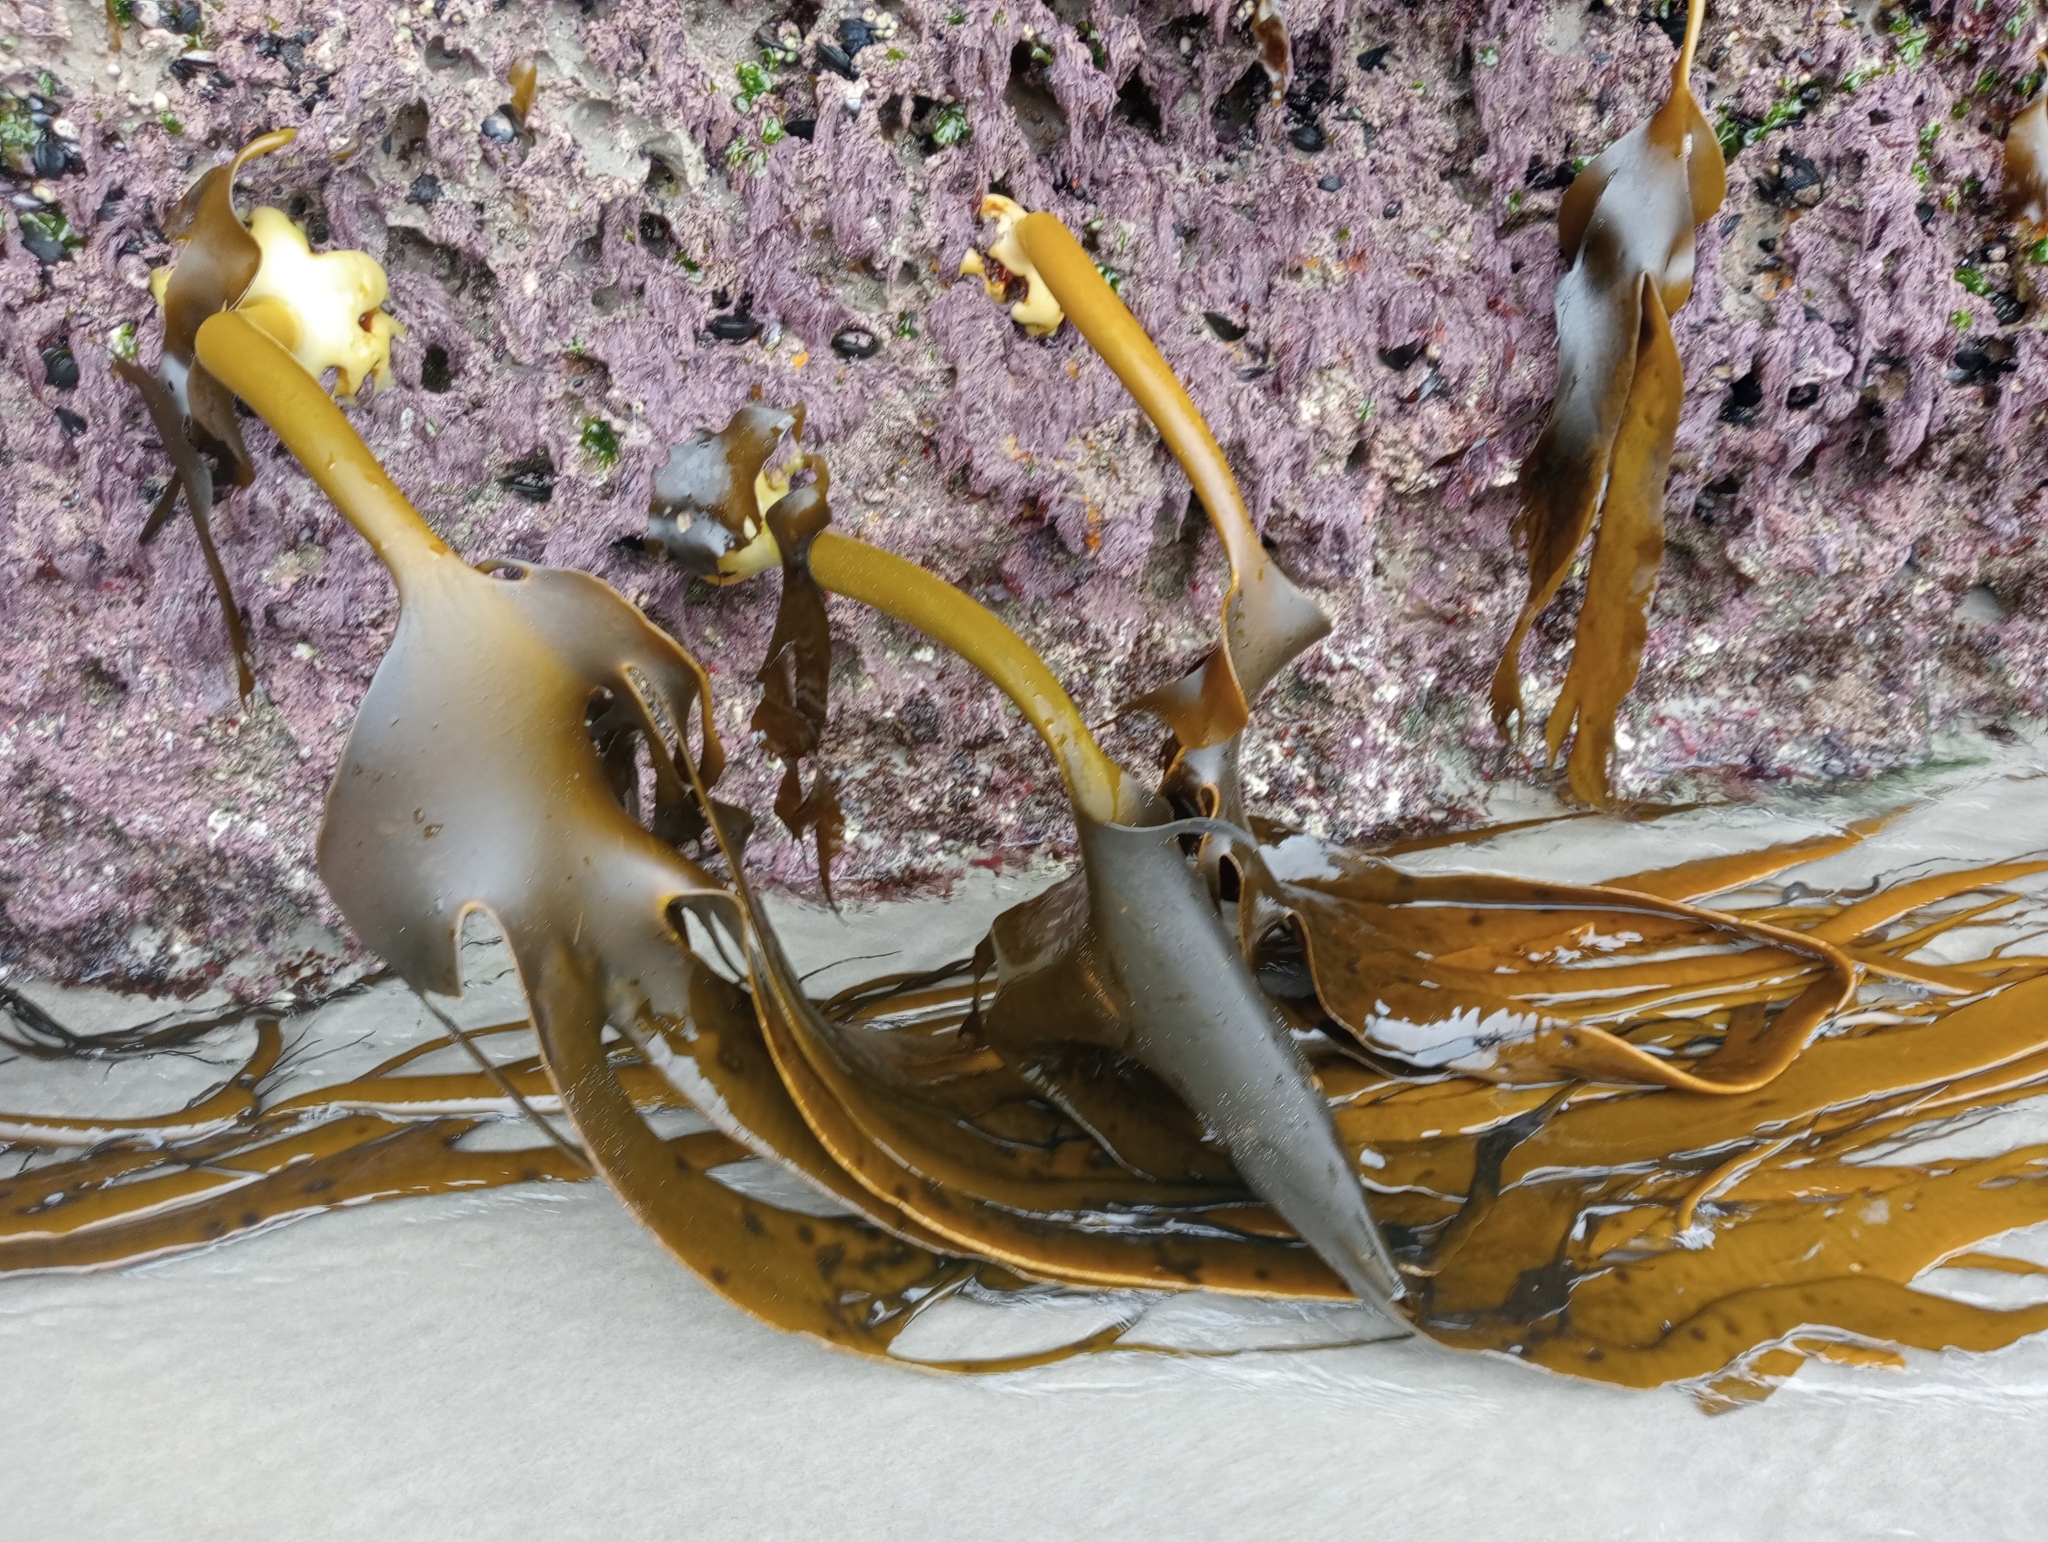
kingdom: Chromista
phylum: Ochrophyta
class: Phaeophyceae
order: Fucales
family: Durvillaeaceae
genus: Durvillaea
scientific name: Durvillaea antarctica
